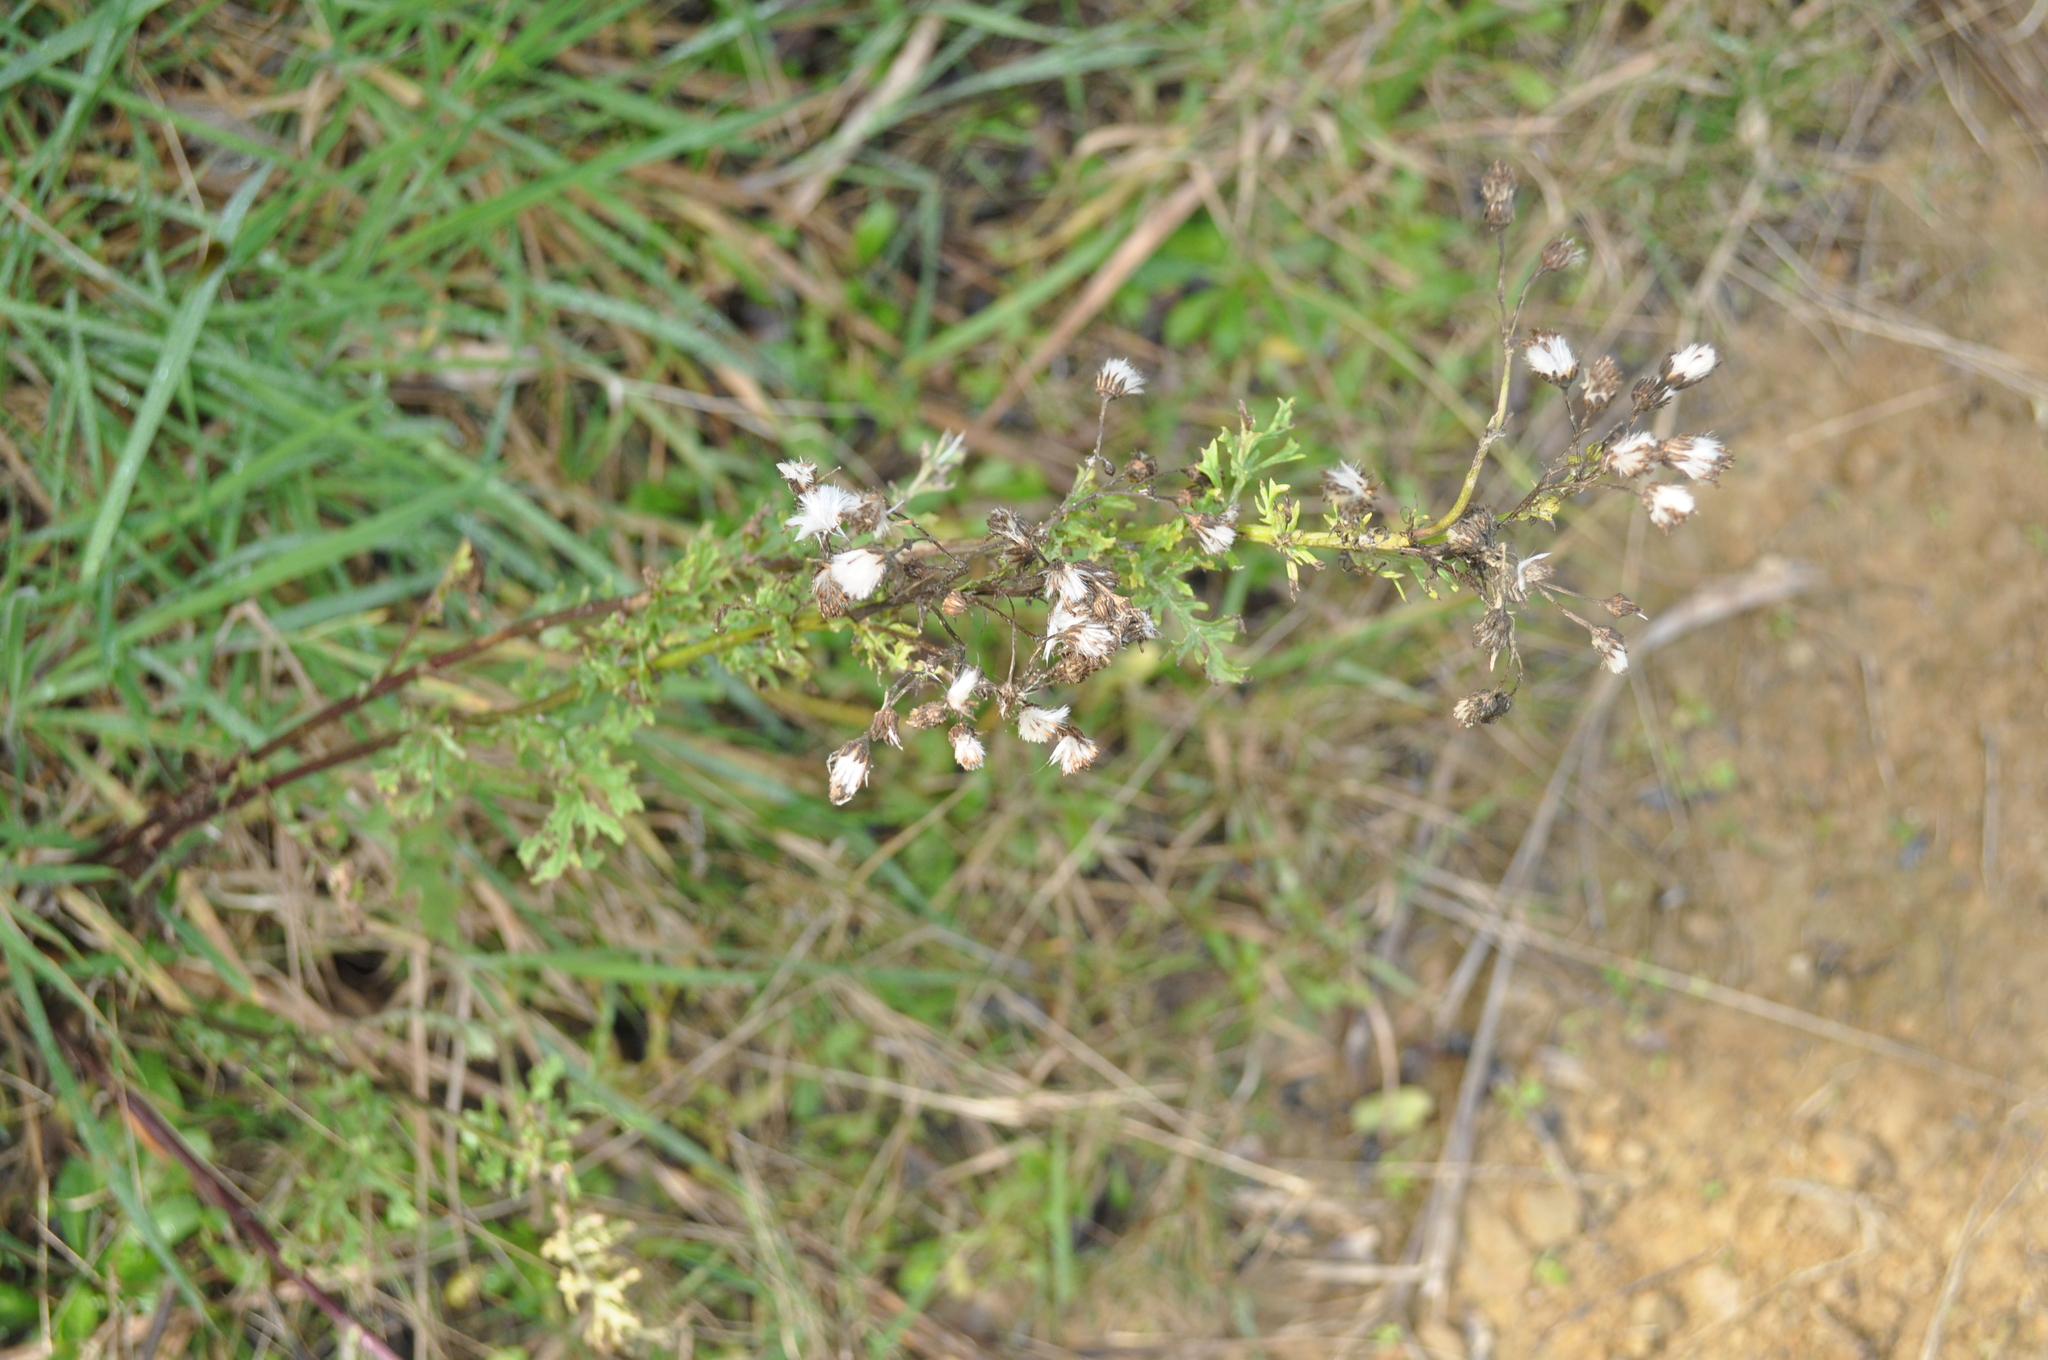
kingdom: Plantae
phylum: Tracheophyta
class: Magnoliopsida
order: Asterales
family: Asteraceae
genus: Jacobaea
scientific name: Jacobaea vulgaris
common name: Stinking willie
